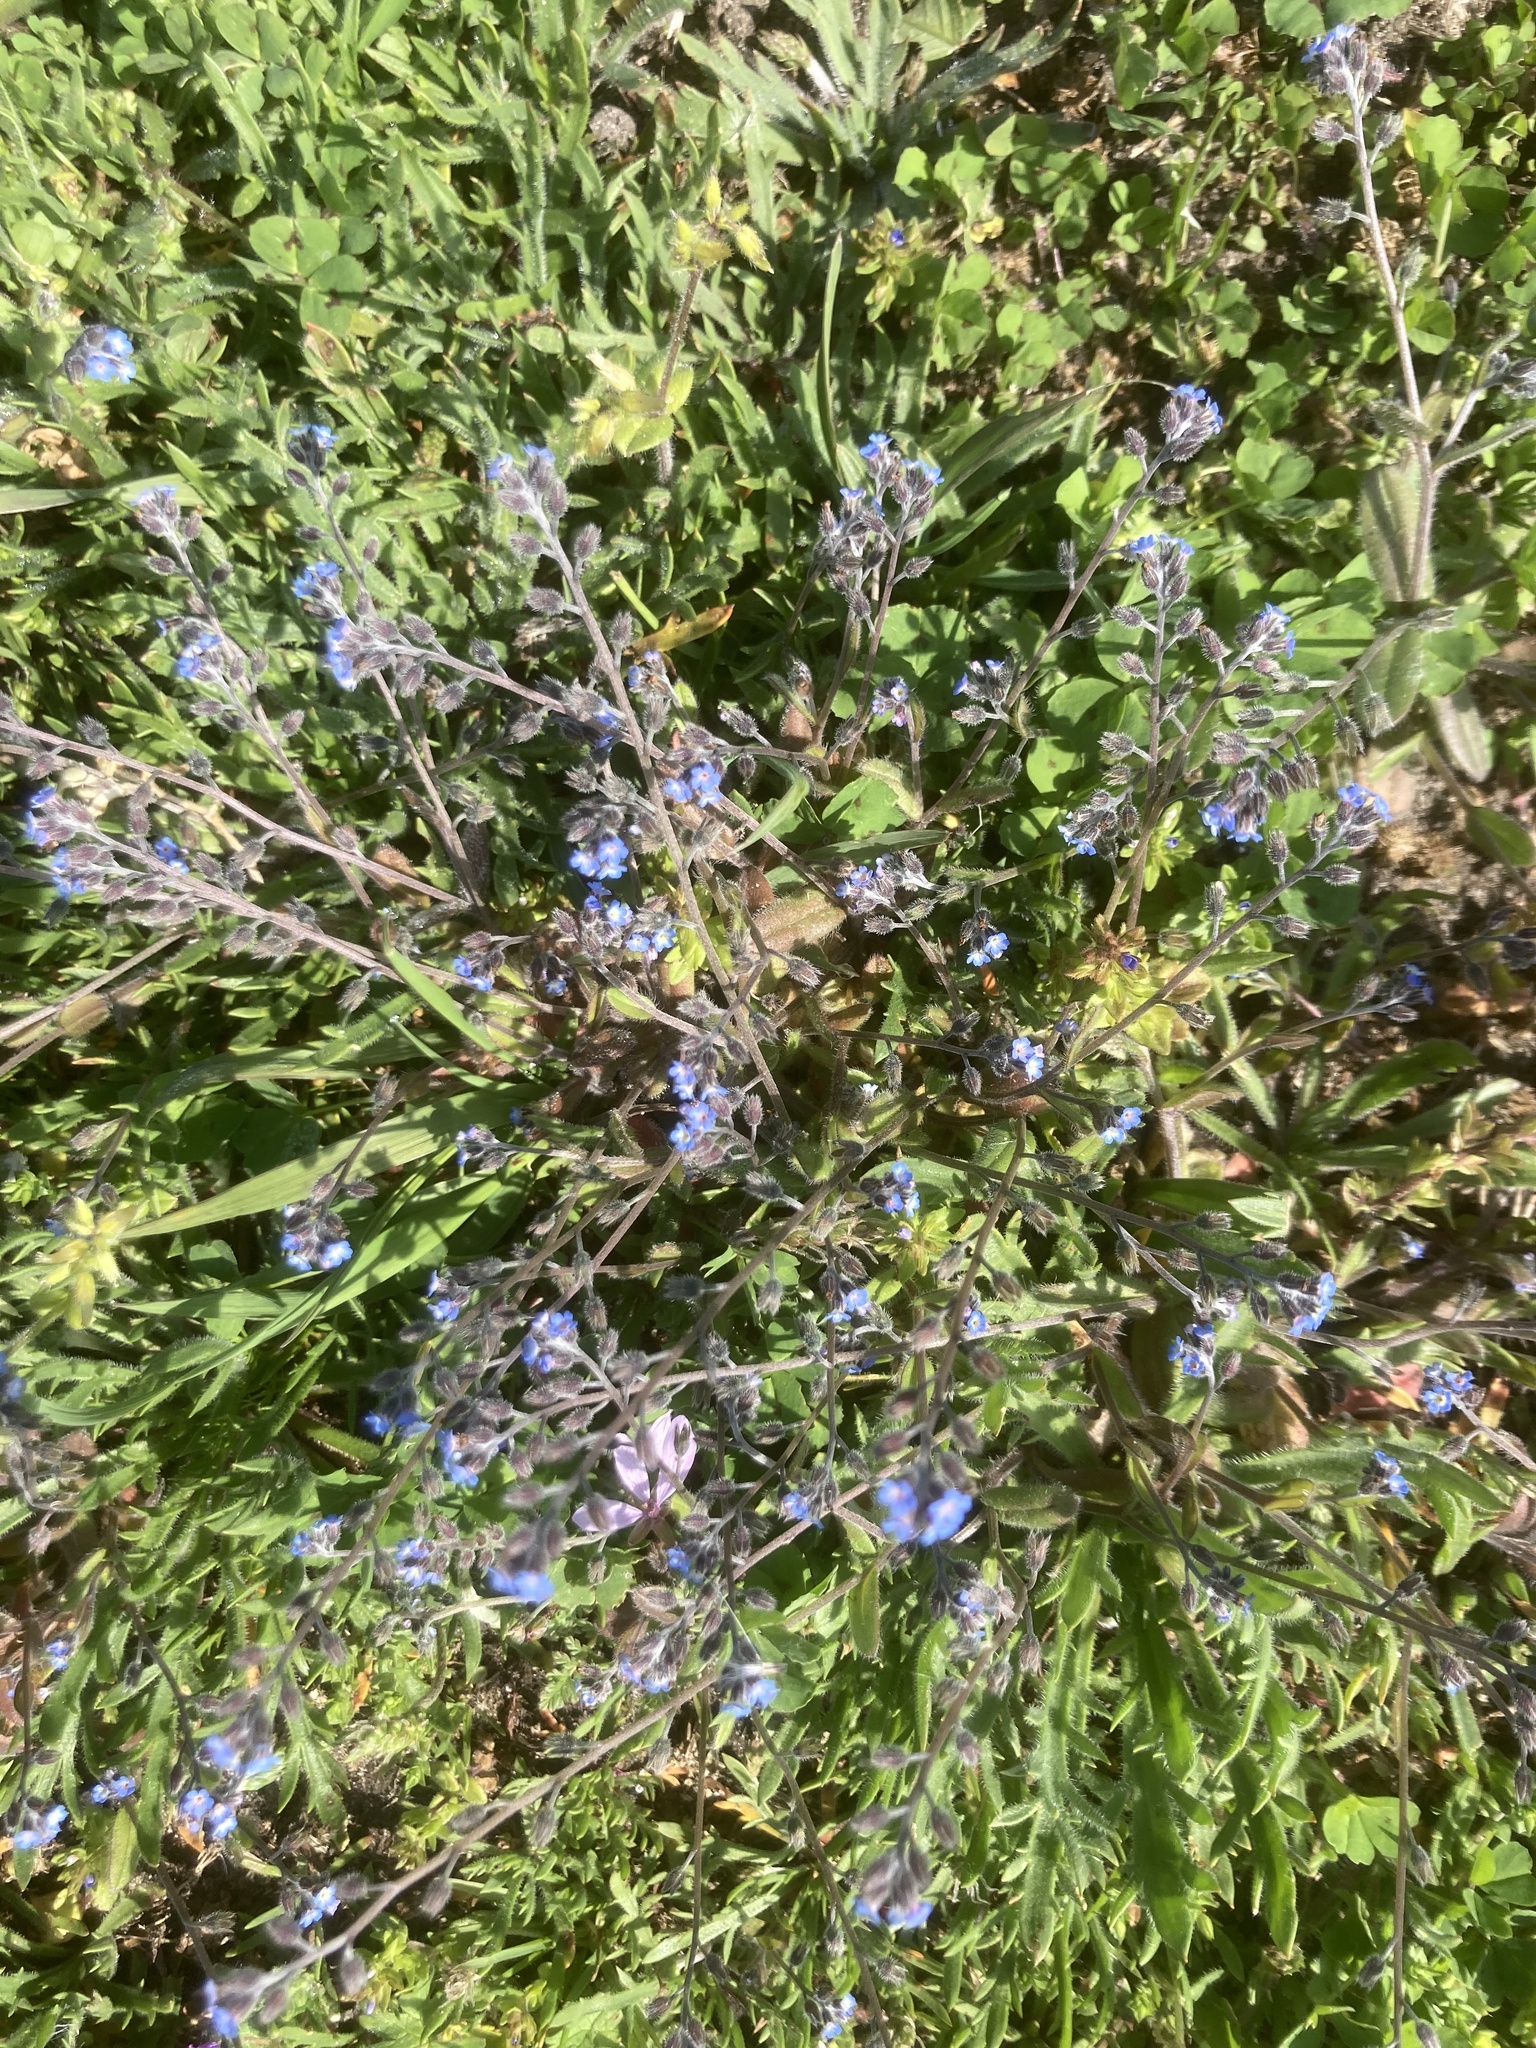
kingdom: Plantae
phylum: Tracheophyta
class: Magnoliopsida
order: Boraginales
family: Boraginaceae
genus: Myosotis
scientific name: Myosotis ramosissima
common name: Early forget-me-not
